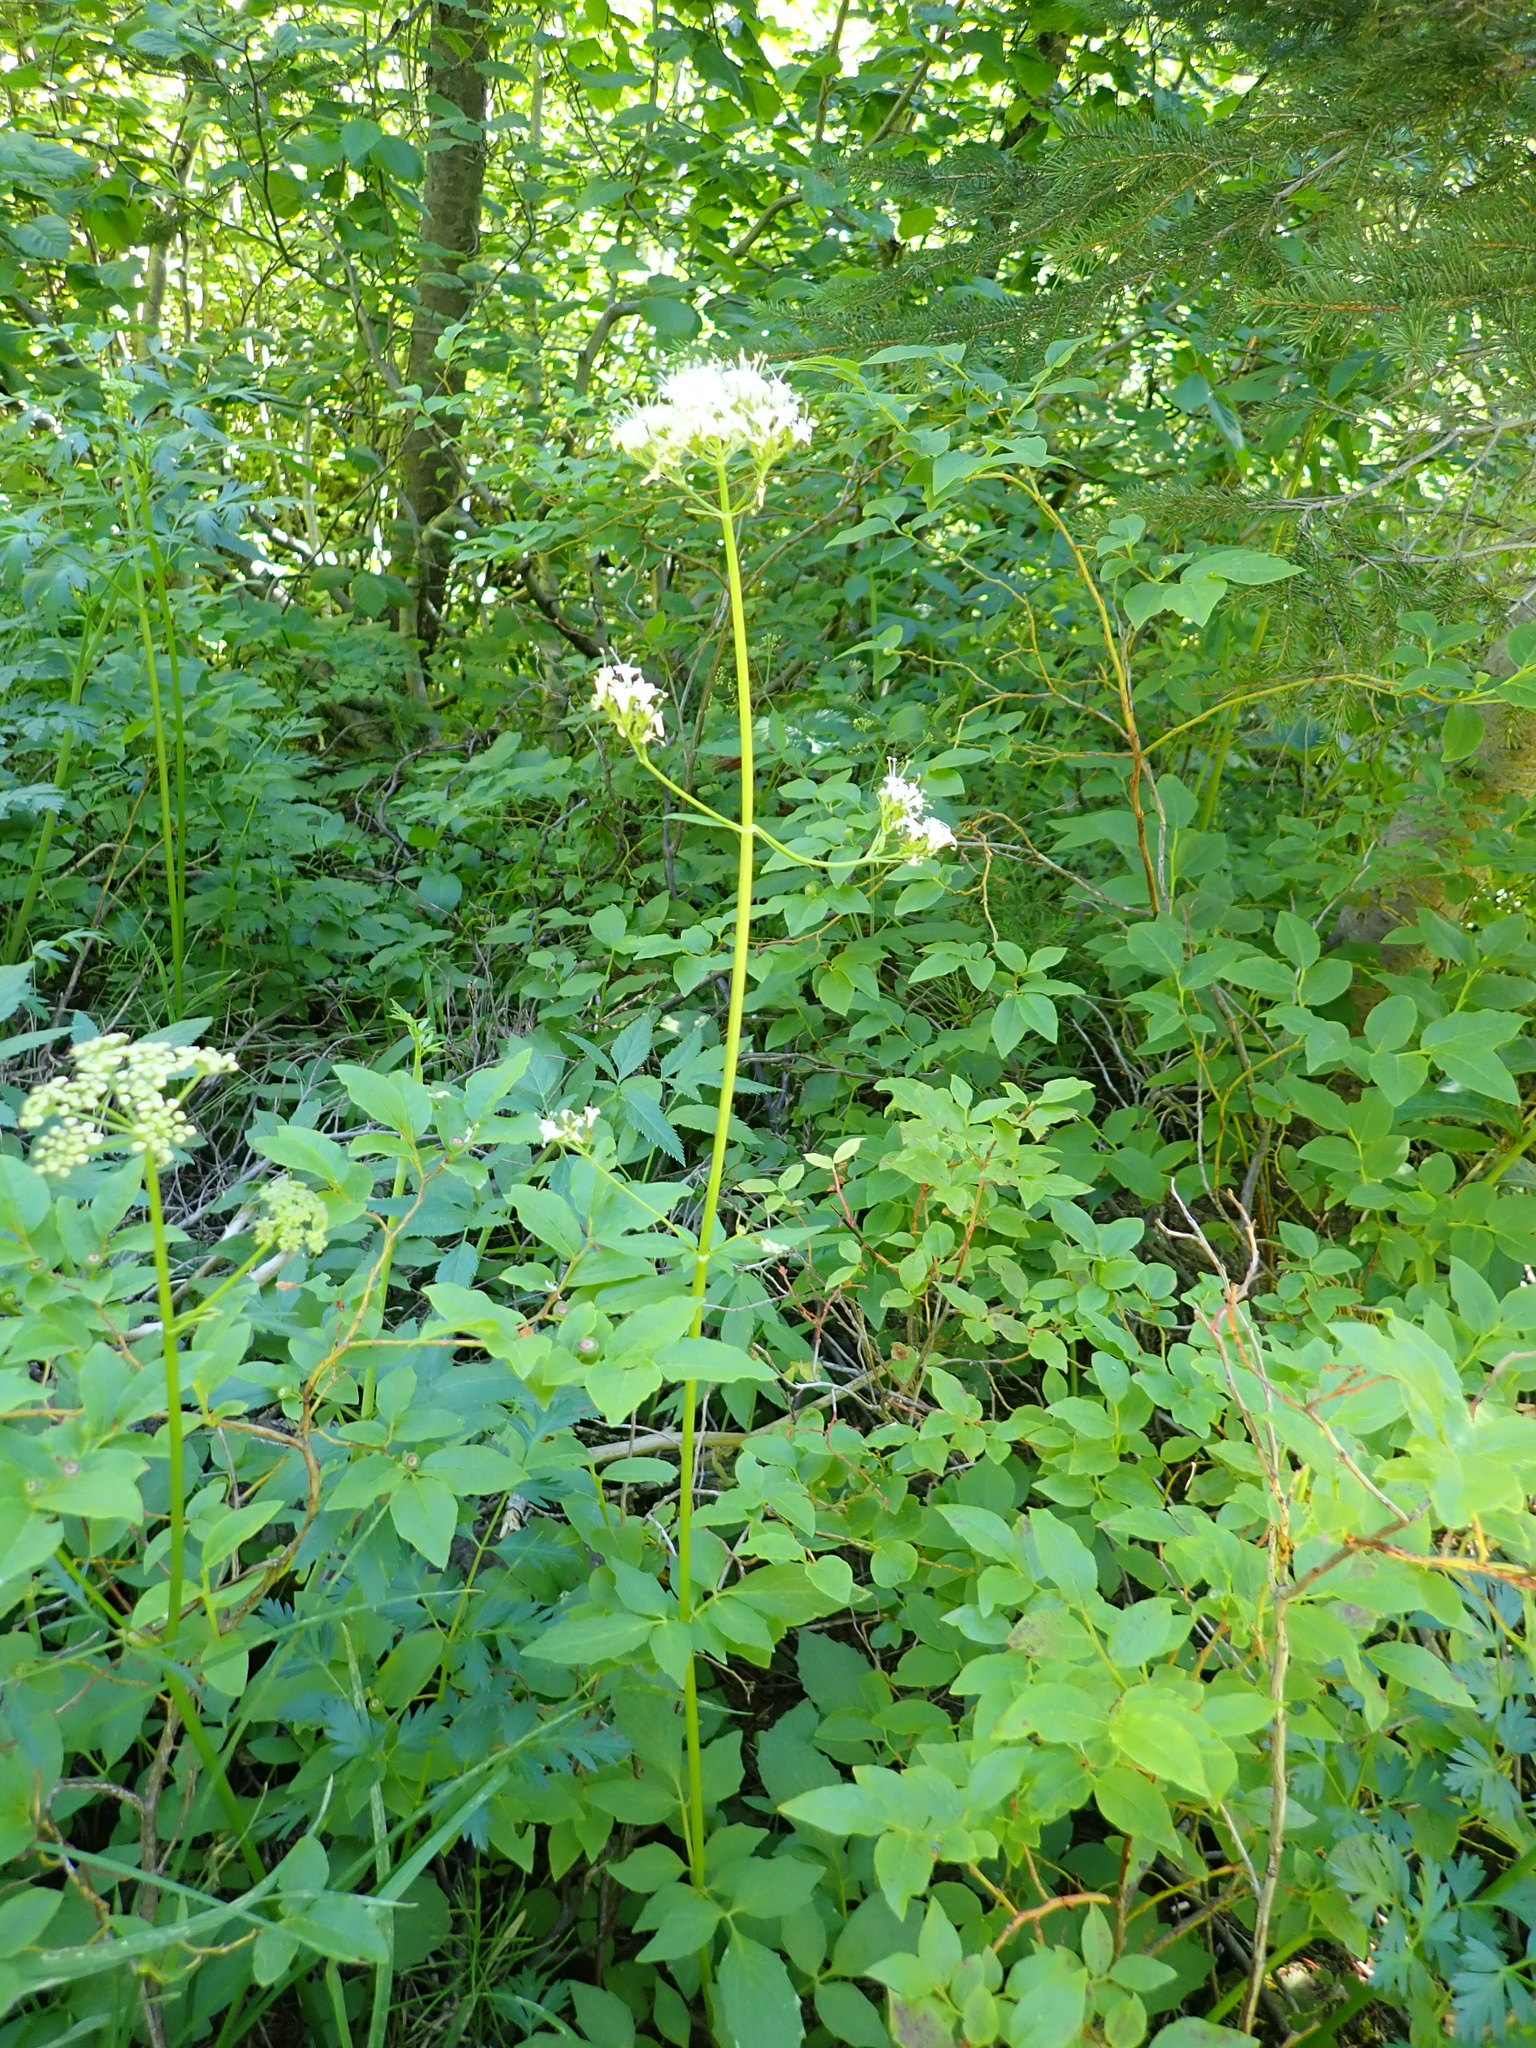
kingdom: Plantae
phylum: Tracheophyta
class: Magnoliopsida
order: Dipsacales
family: Caprifoliaceae
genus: Valeriana
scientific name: Valeriana sitchensis
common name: Pacific valerian
